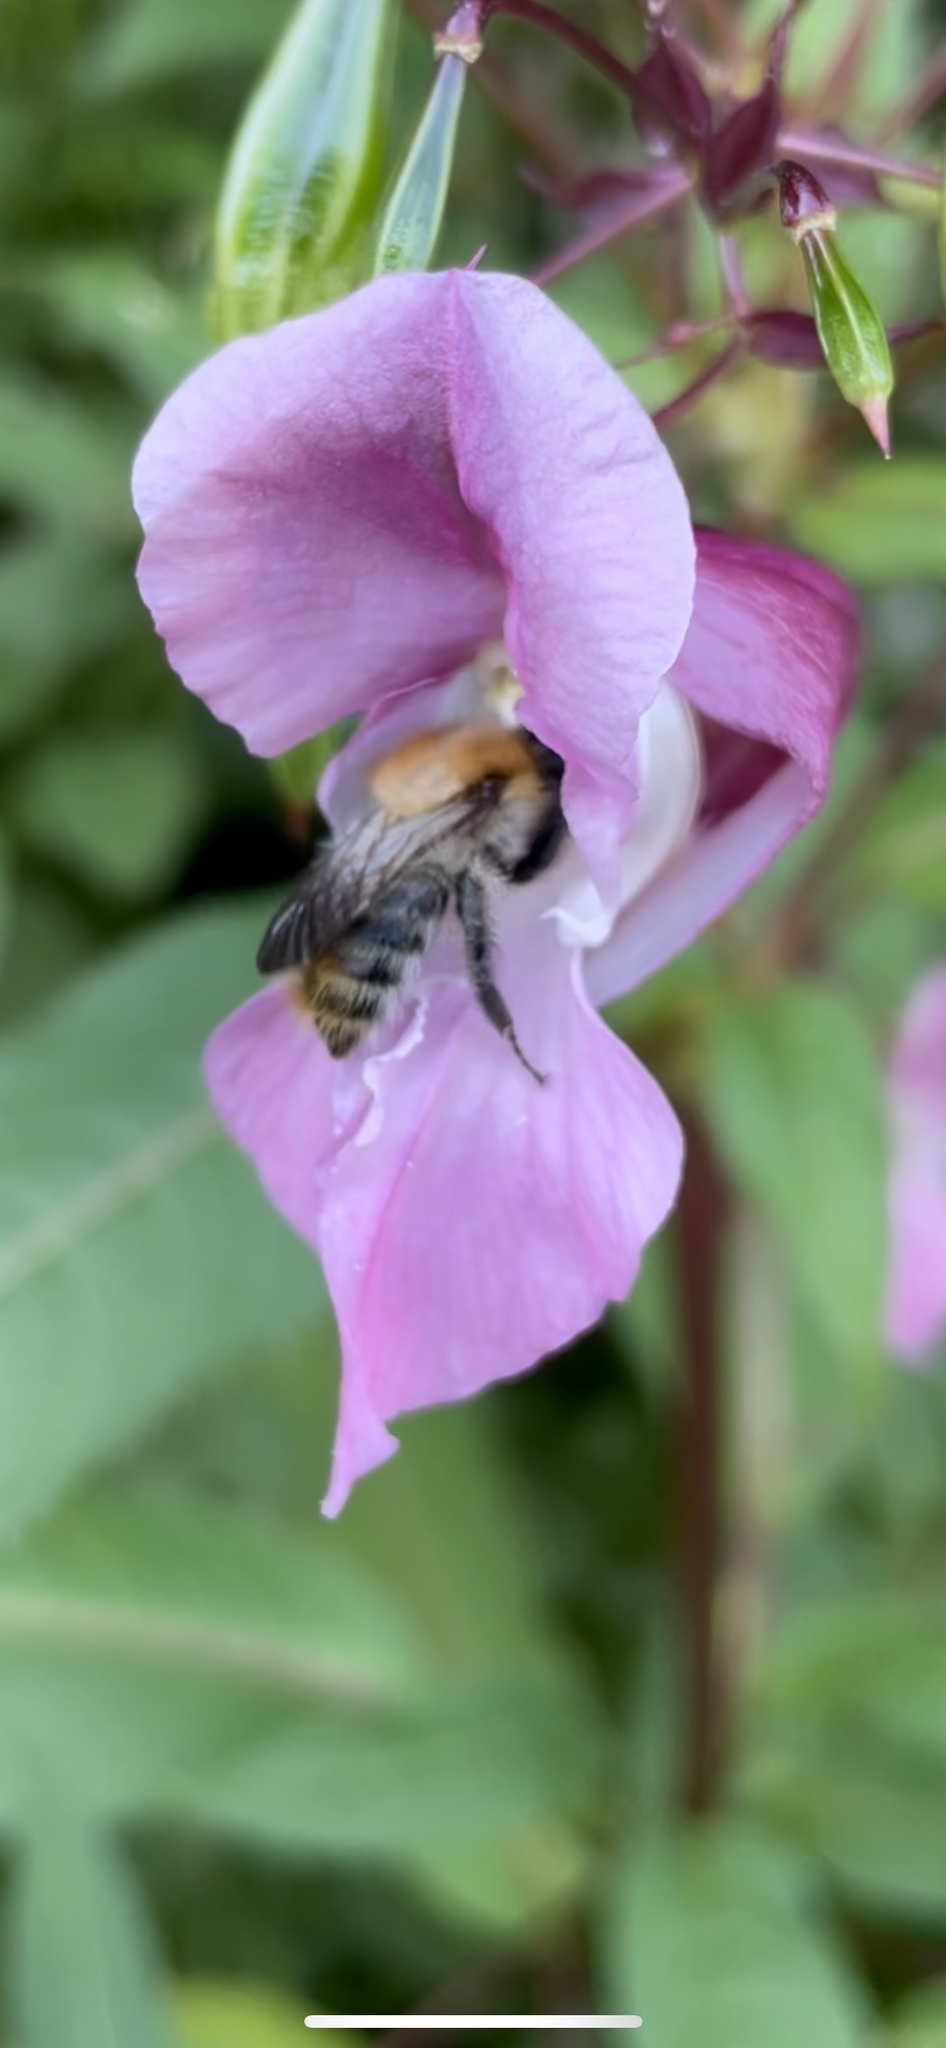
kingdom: Animalia
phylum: Arthropoda
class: Insecta
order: Hymenoptera
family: Apidae
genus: Bombus
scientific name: Bombus pascuorum
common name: Common carder bee
